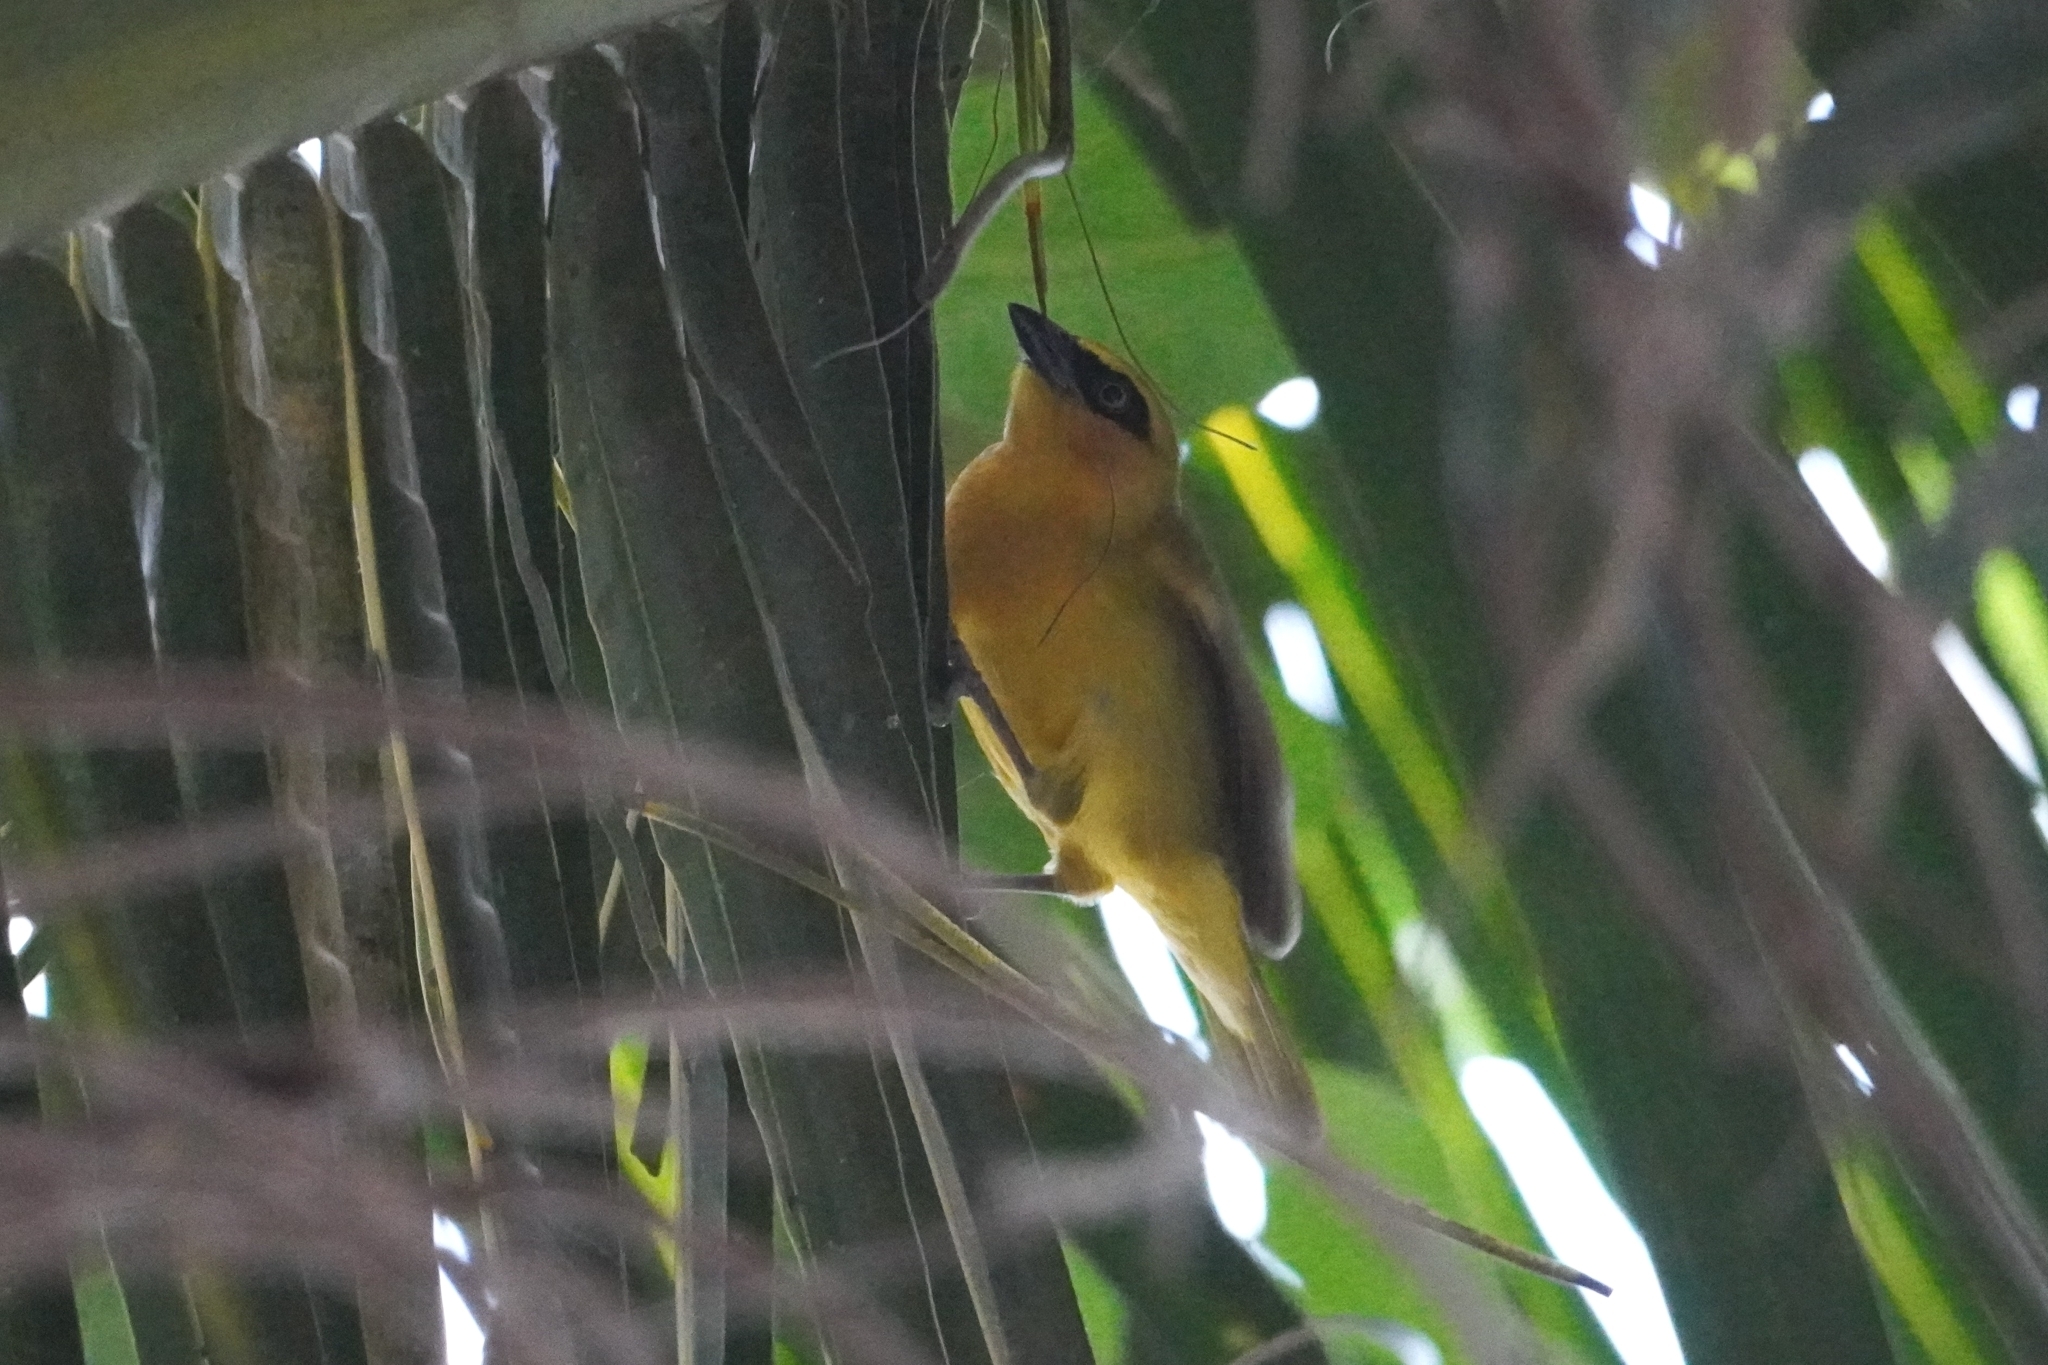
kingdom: Animalia
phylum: Chordata
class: Aves
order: Passeriformes
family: Ploceidae
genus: Ploceus
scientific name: Ploceus brachypterus
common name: Olive-naped weaver
